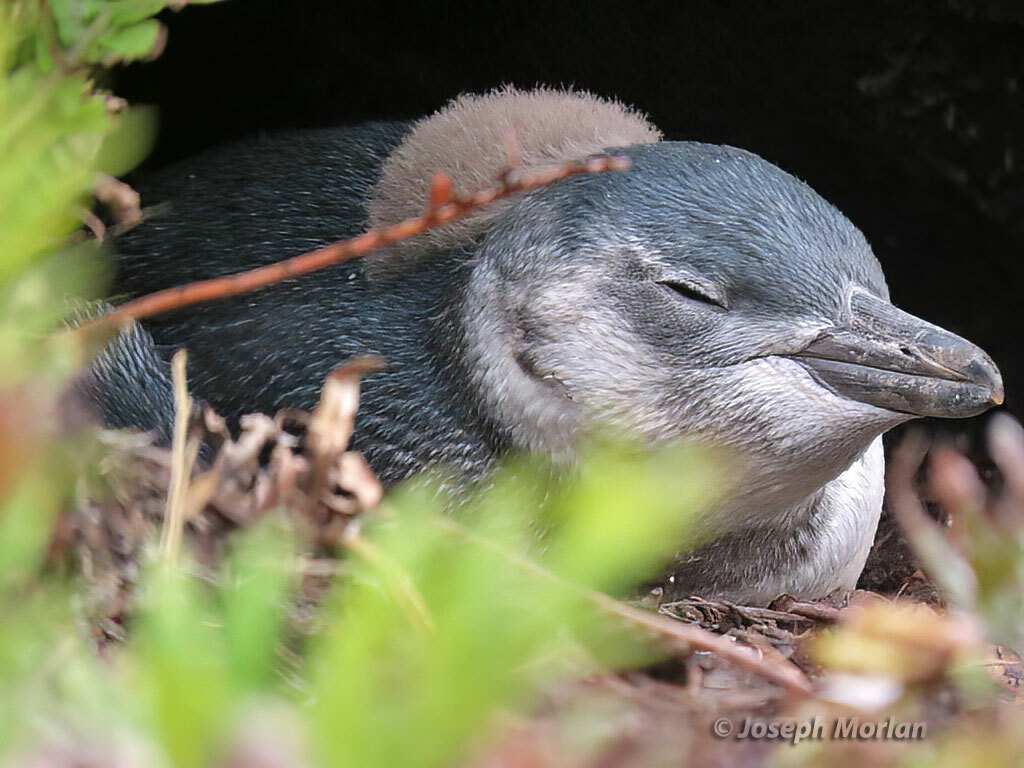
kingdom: Animalia
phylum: Chordata
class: Aves
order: Sphenisciformes
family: Spheniscidae
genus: Spheniscus
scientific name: Spheniscus magellanicus
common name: Magellanic penguin
